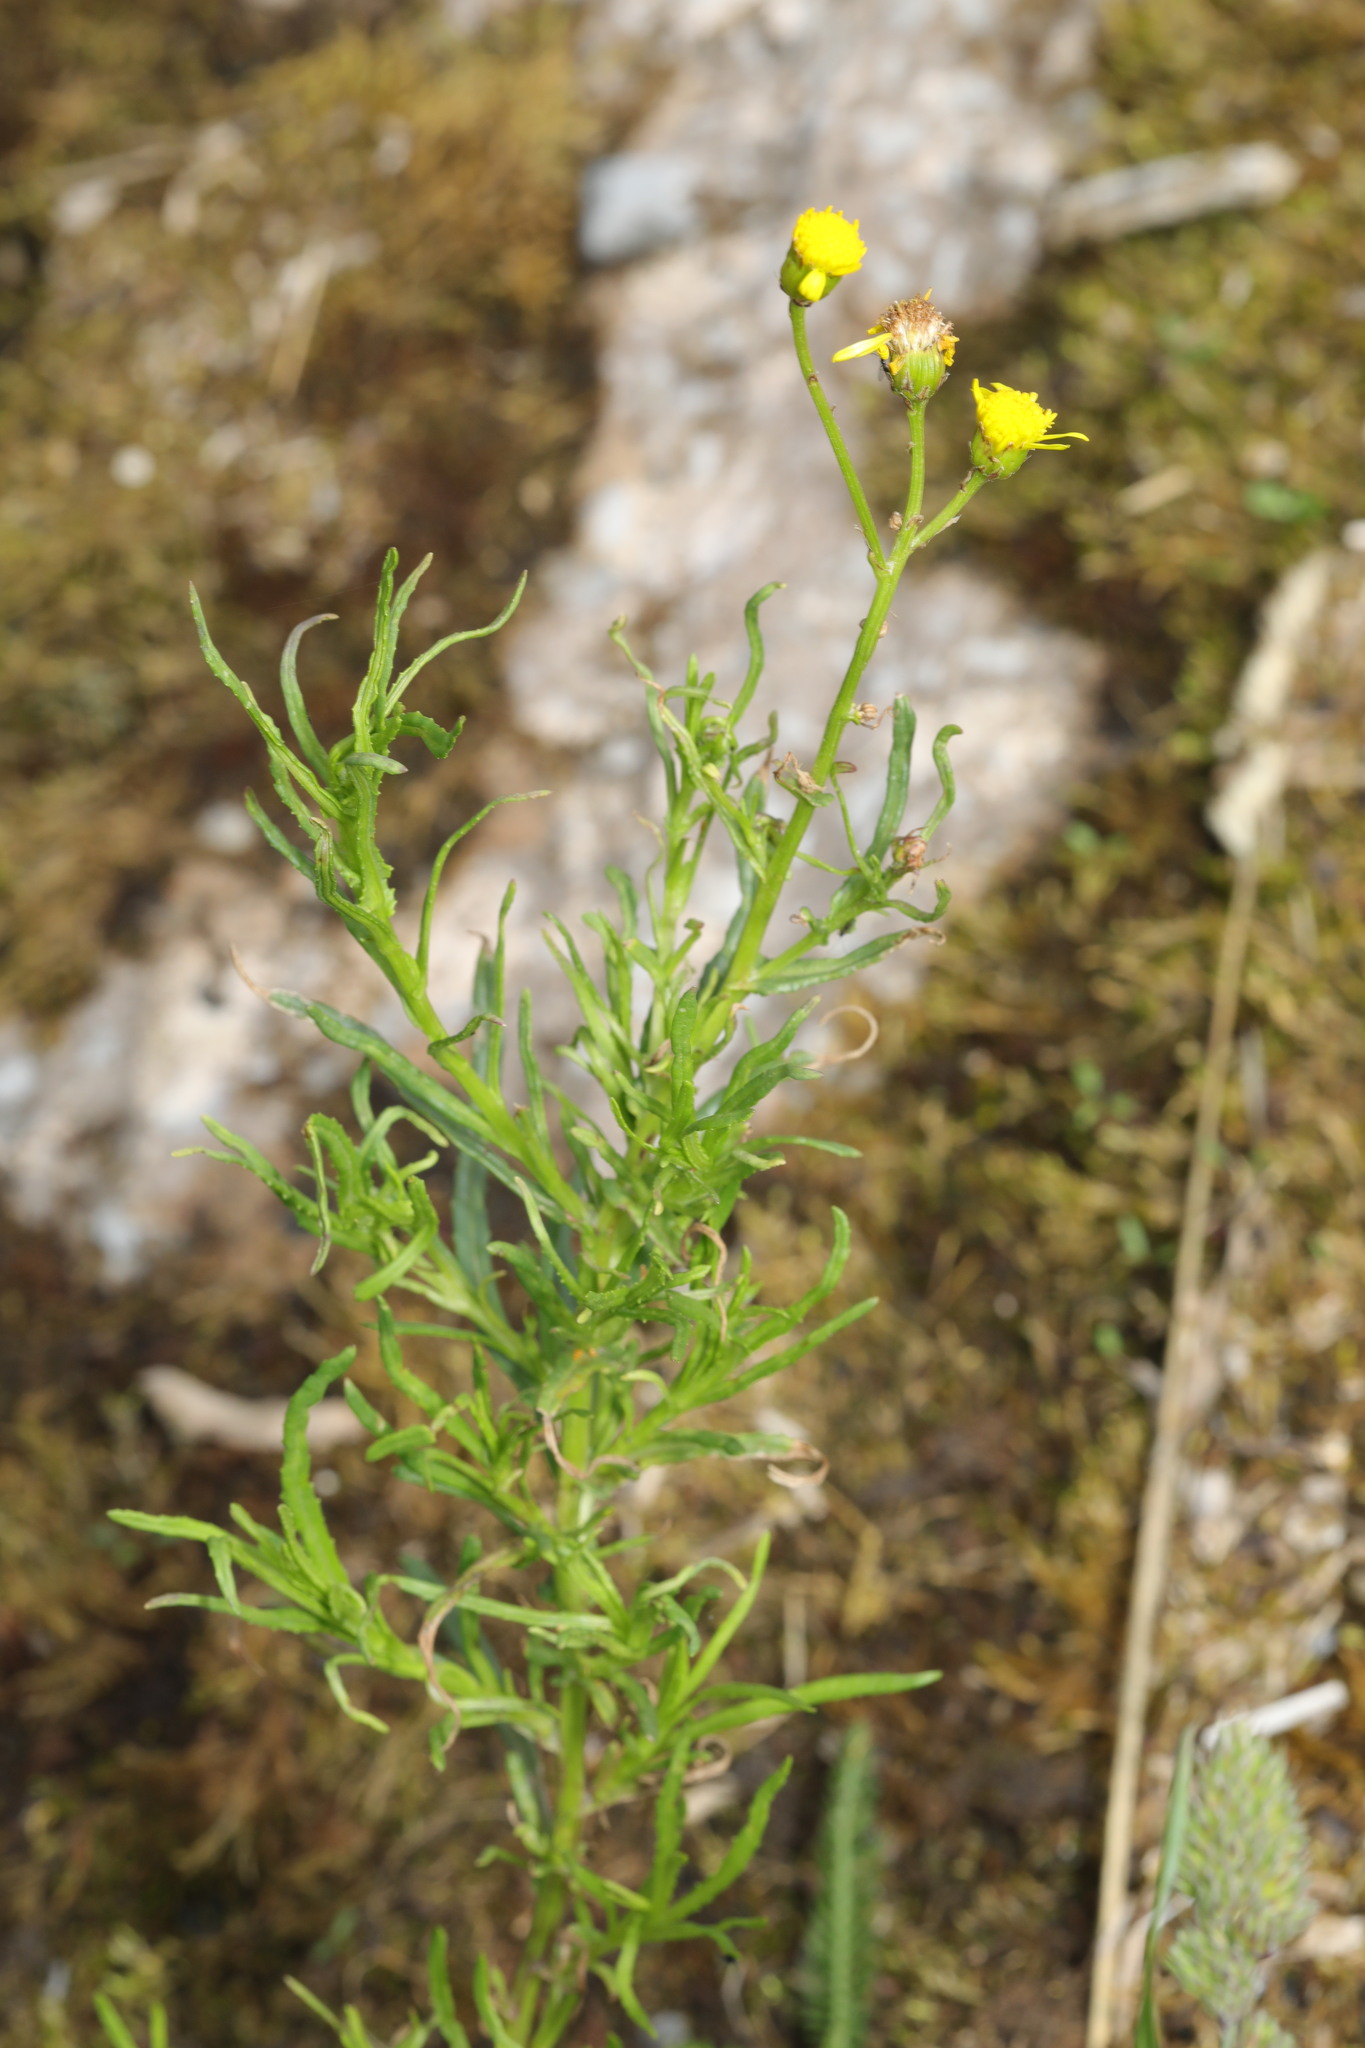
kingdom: Plantae
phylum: Tracheophyta
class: Magnoliopsida
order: Asterales
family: Asteraceae
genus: Senecio
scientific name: Senecio inaequidens
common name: Narrow-leaved ragwort
